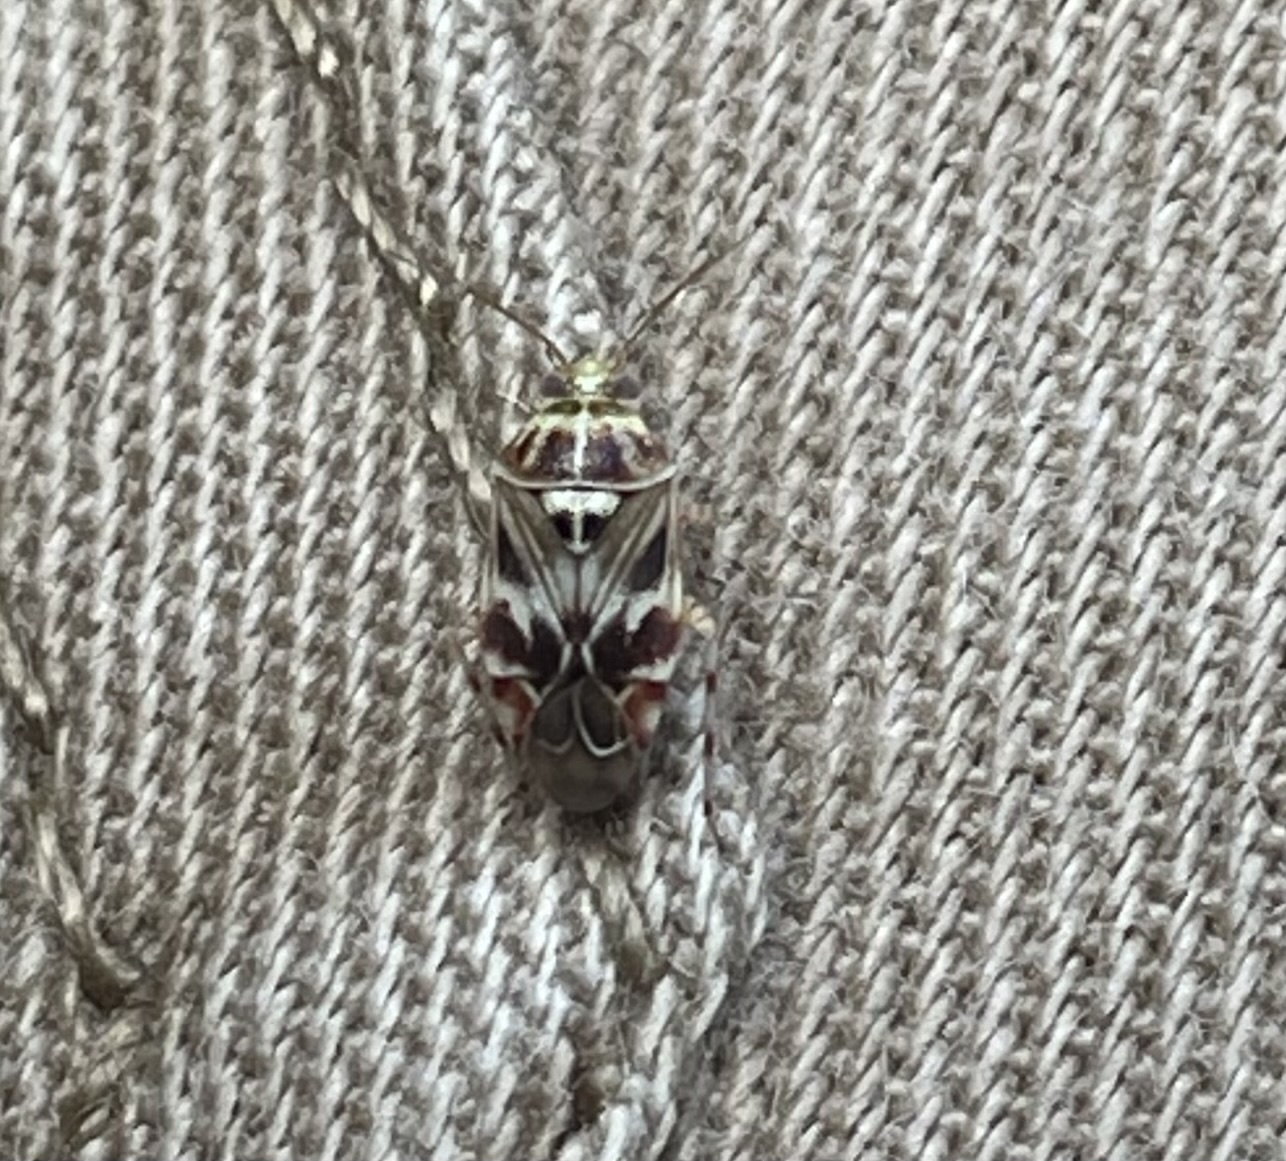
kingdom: Animalia
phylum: Arthropoda
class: Insecta
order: Hemiptera
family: Miridae
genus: Tropidosteptes
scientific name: Tropidosteptes quercicola
